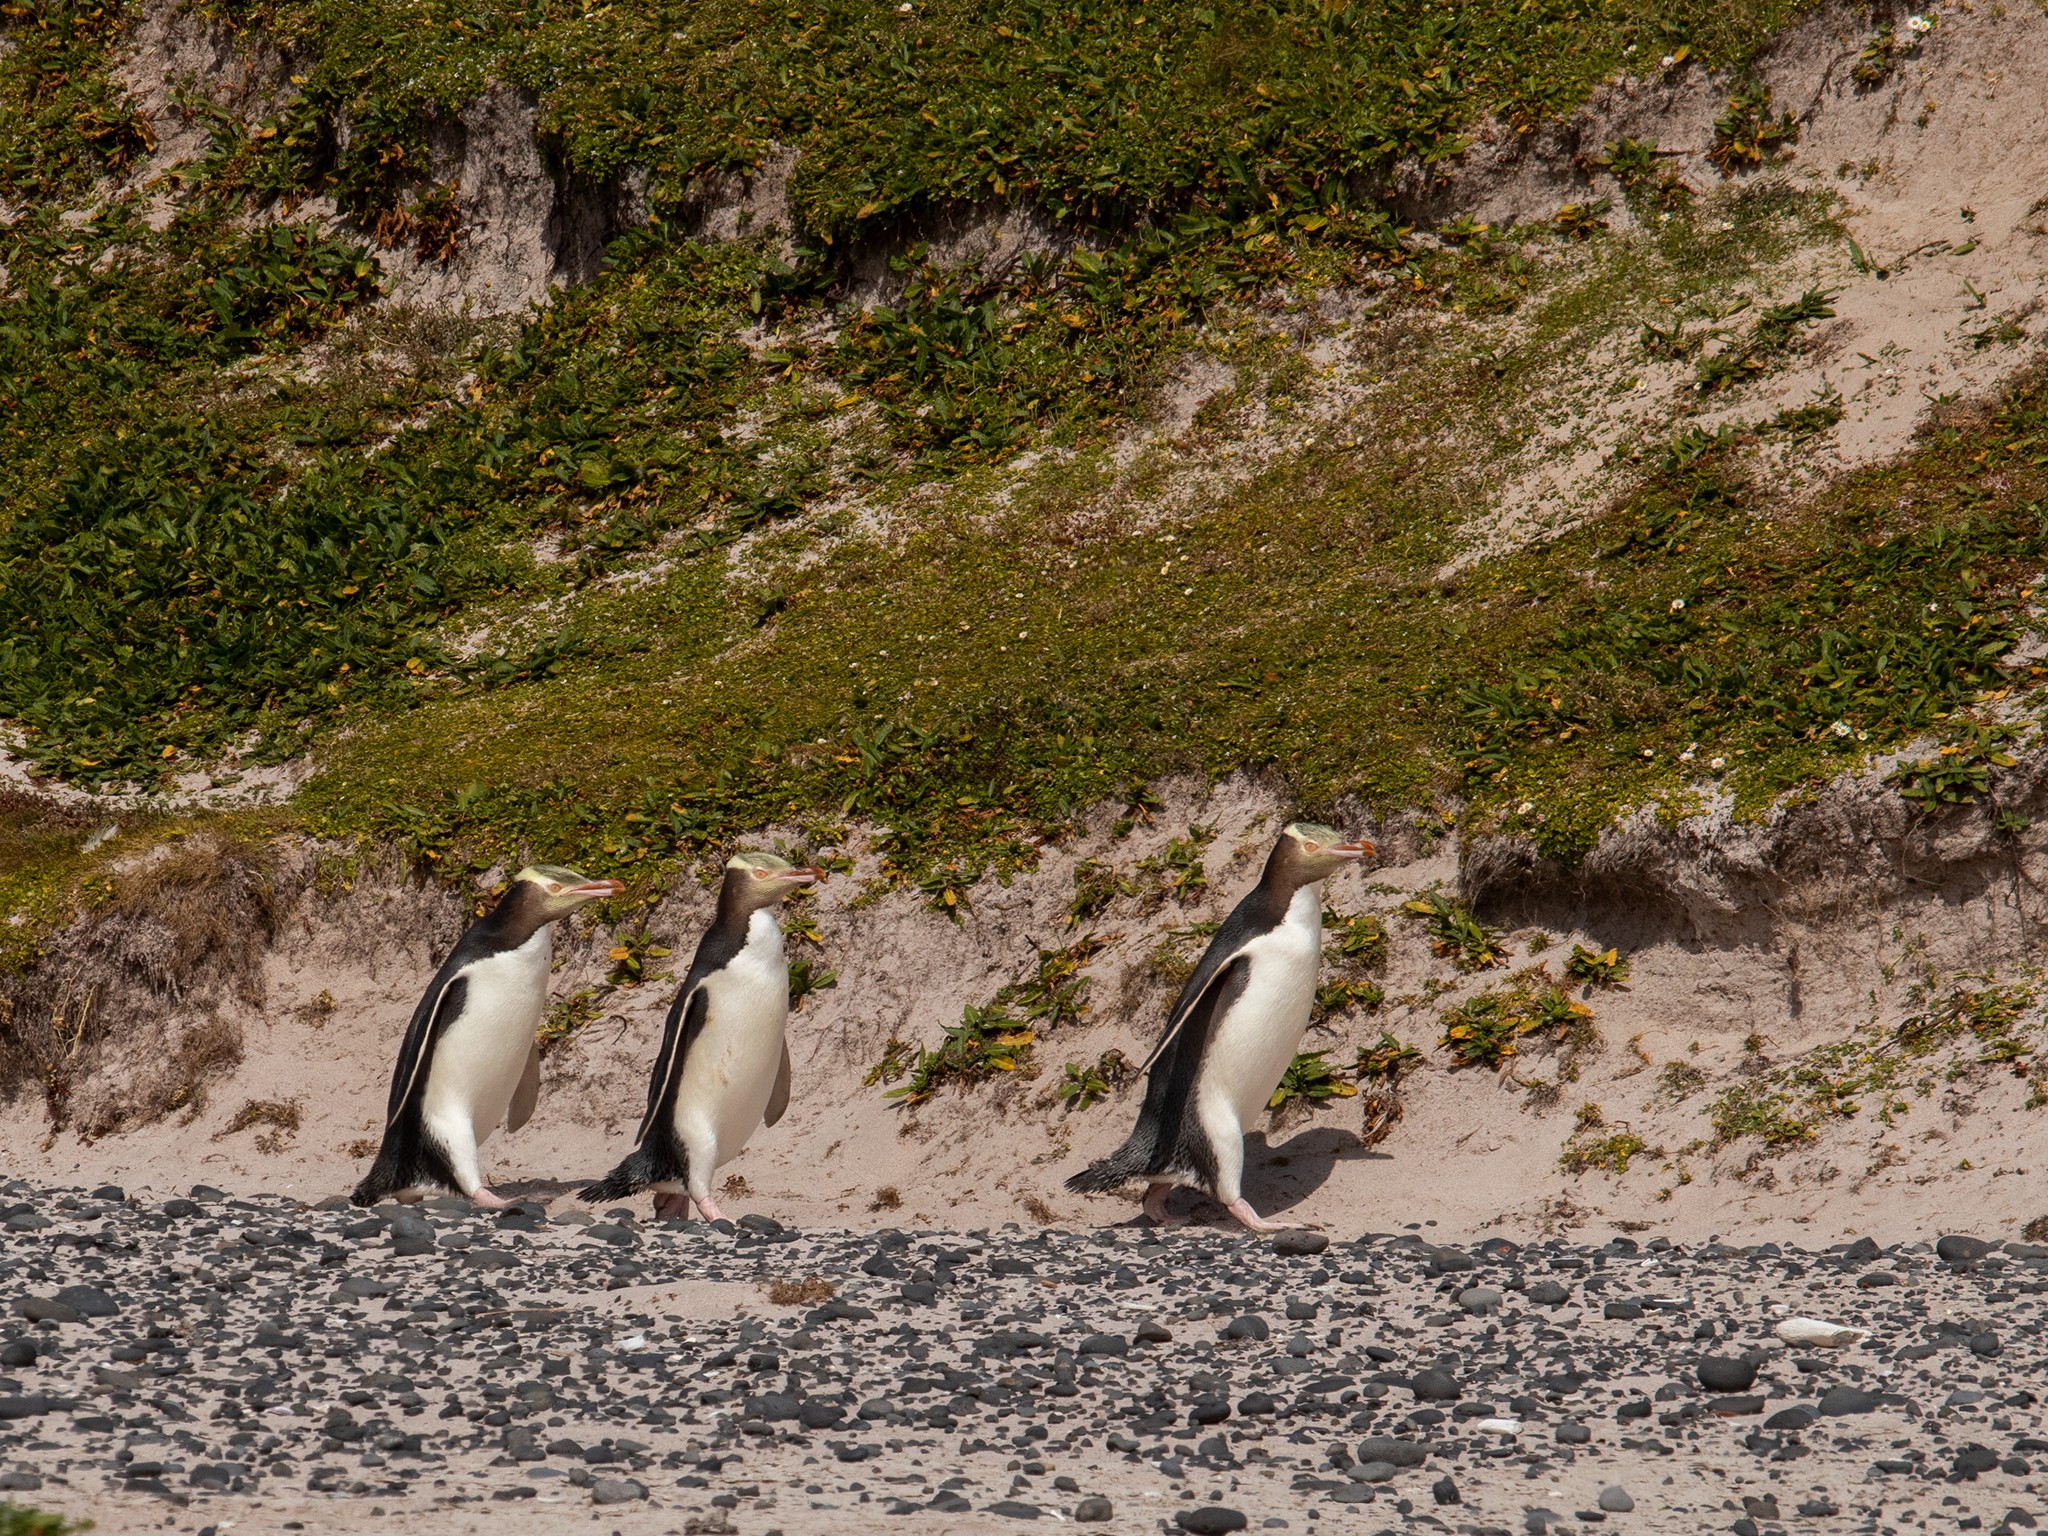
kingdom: Animalia
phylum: Chordata
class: Aves
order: Sphenisciformes
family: Spheniscidae
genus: Megadyptes
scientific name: Megadyptes antipodes
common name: Yellow-eyed penguin
